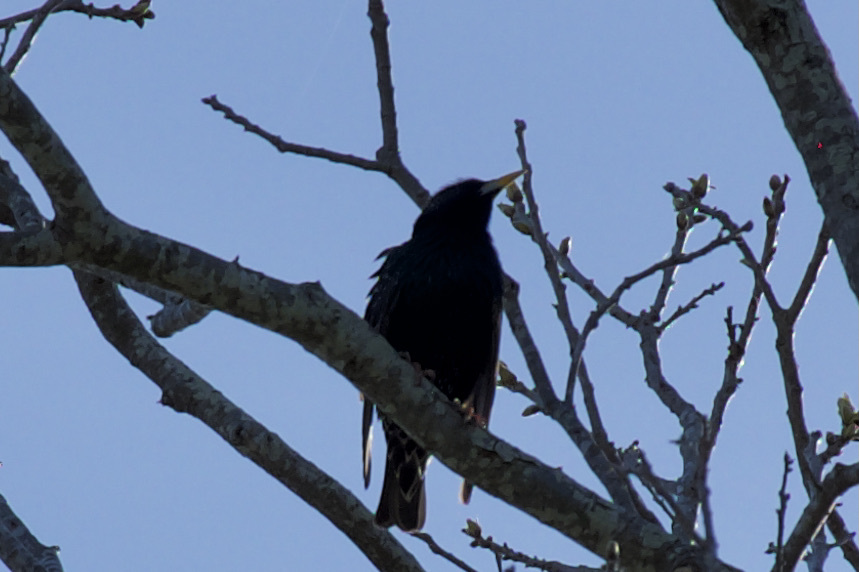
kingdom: Animalia
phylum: Chordata
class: Aves
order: Passeriformes
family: Sturnidae
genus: Sturnus
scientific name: Sturnus vulgaris
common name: Common starling
